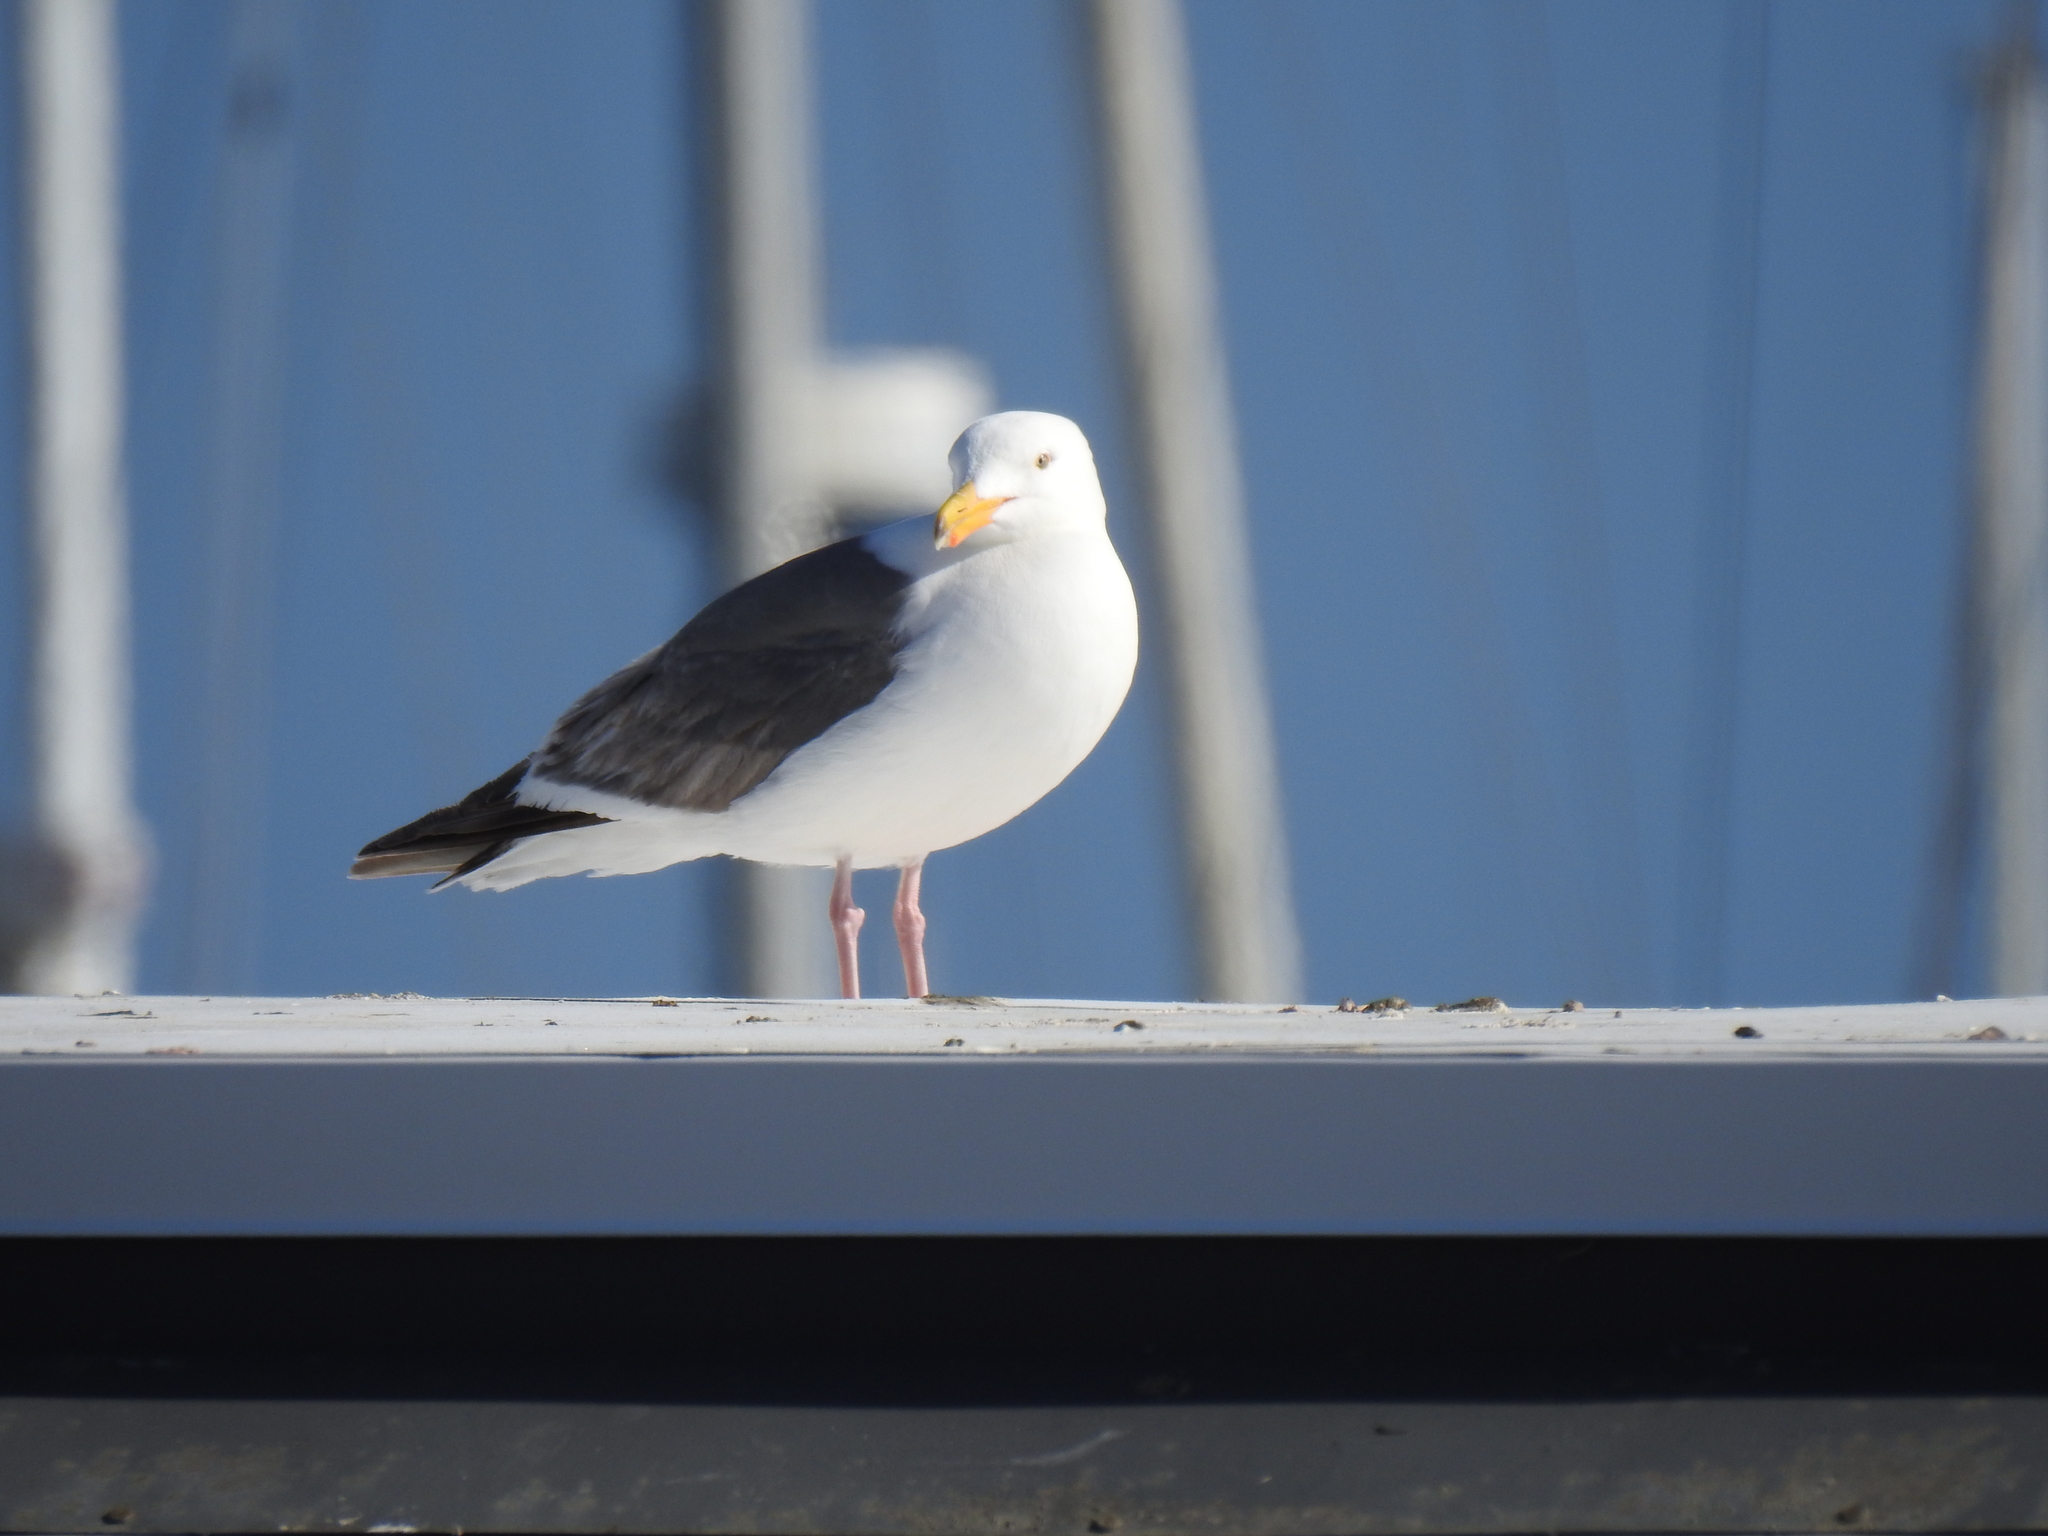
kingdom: Animalia
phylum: Chordata
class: Aves
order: Charadriiformes
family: Laridae
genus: Larus
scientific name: Larus occidentalis
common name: Western gull
